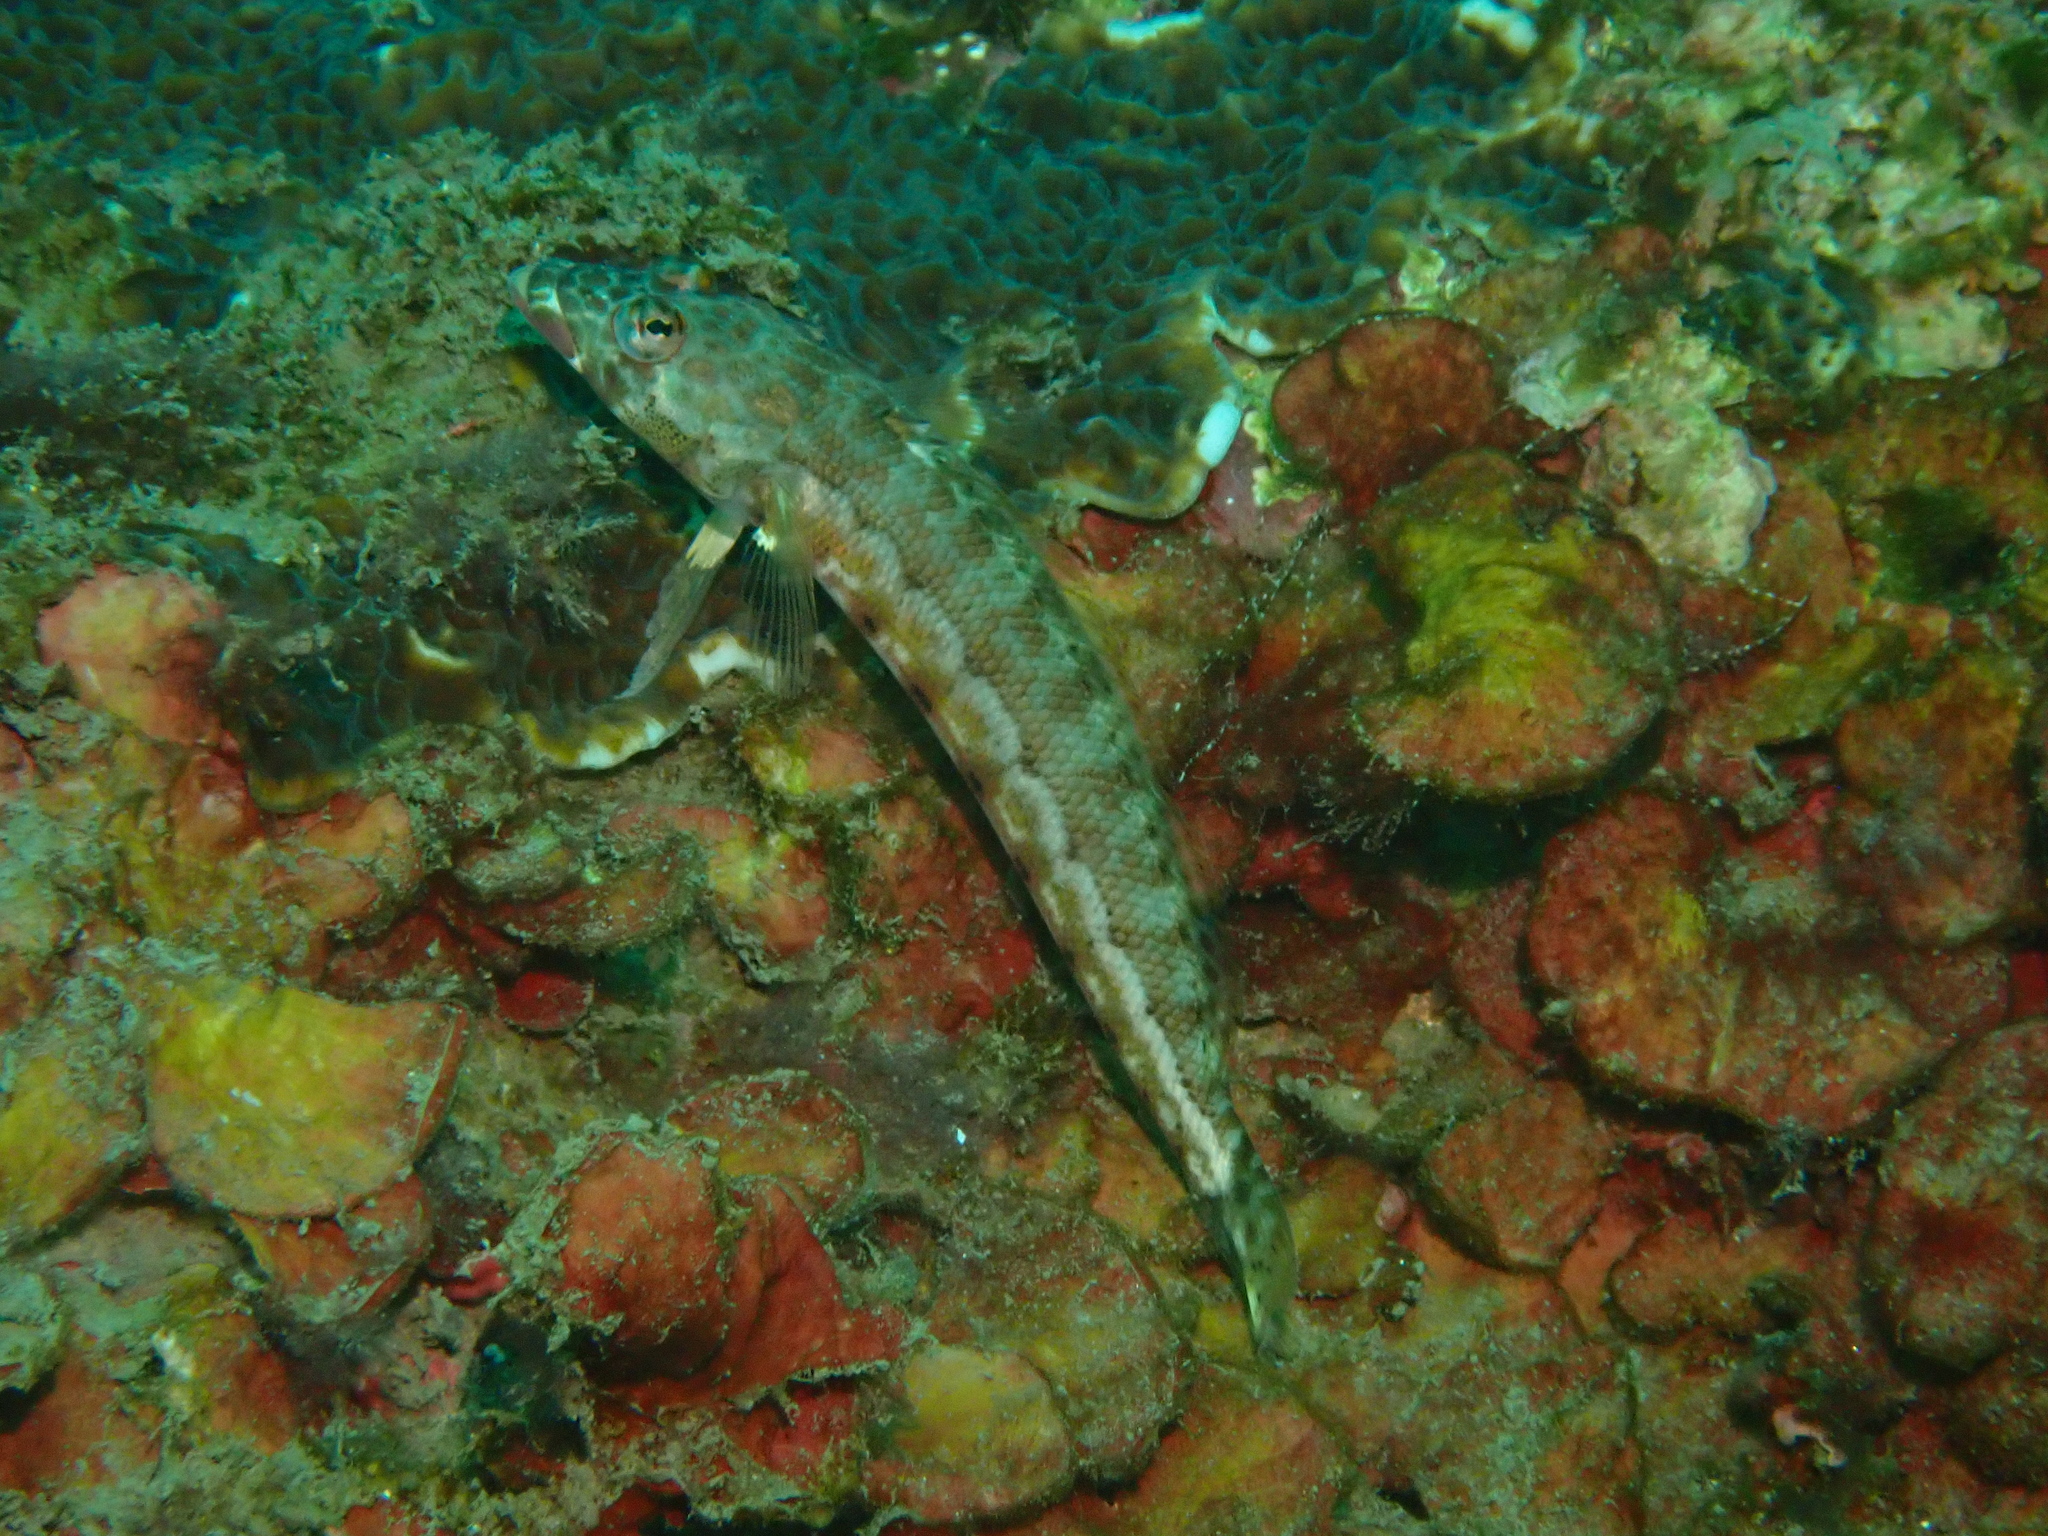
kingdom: Animalia
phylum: Chordata
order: Perciformes
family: Pinguipedidae
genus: Parapercis
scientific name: Parapercis clathrata
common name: Latticed sandperch
